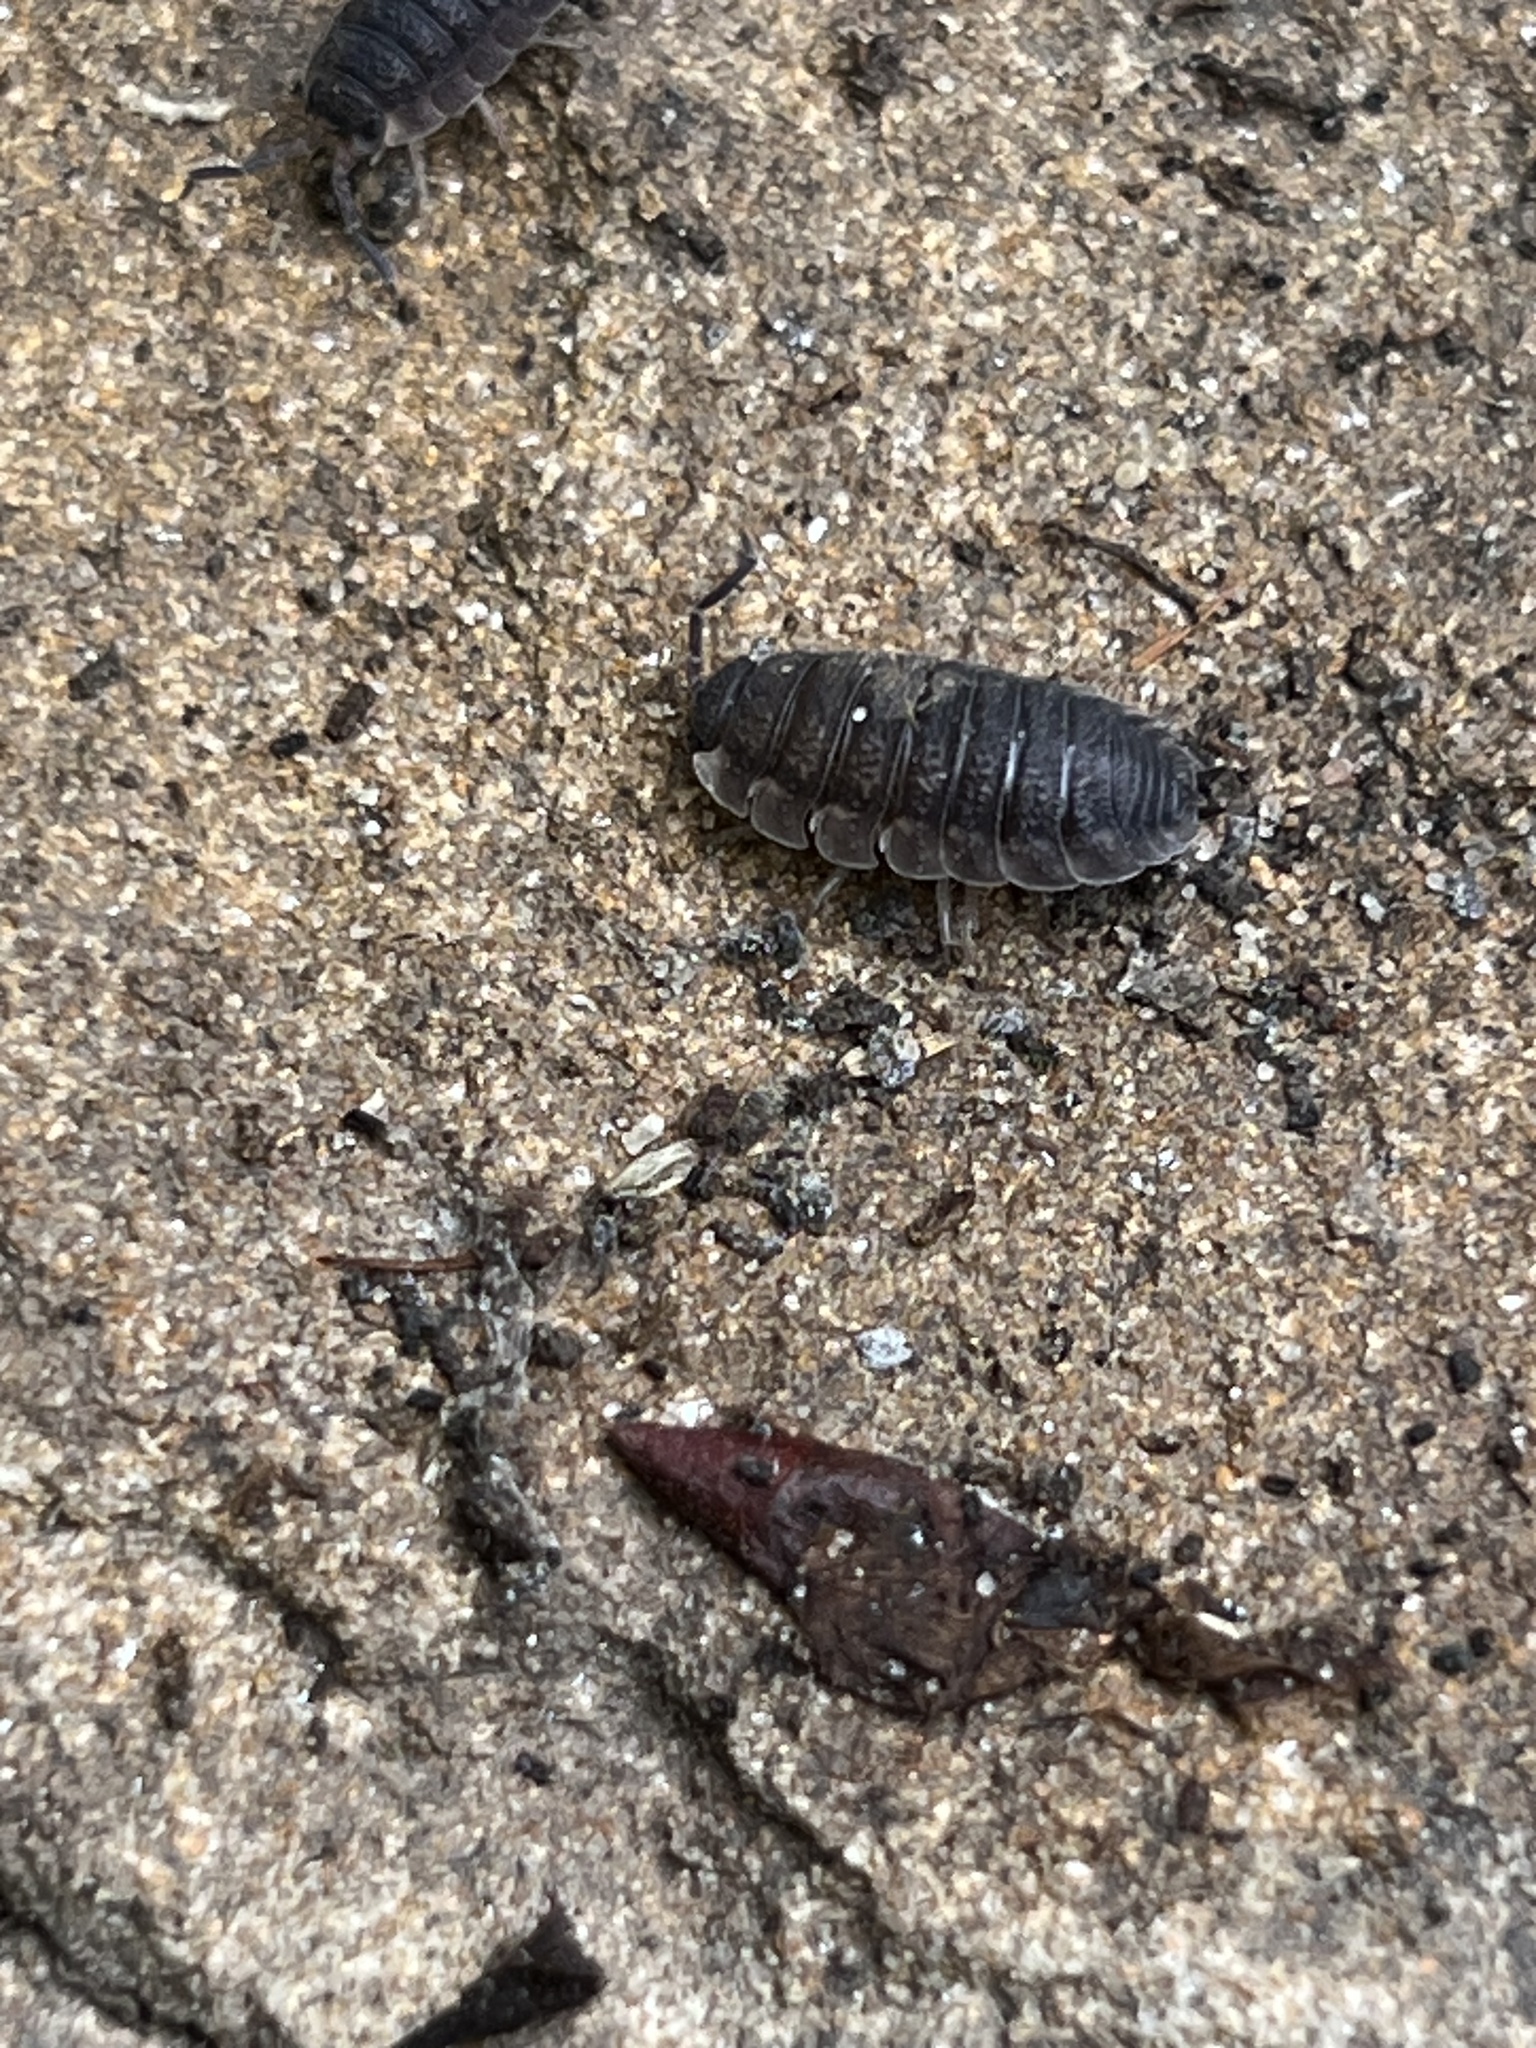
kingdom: Animalia
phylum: Arthropoda
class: Malacostraca
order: Isopoda
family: Porcellionidae
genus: Porcellio
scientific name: Porcellio scaber
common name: Common rough woodlouse
